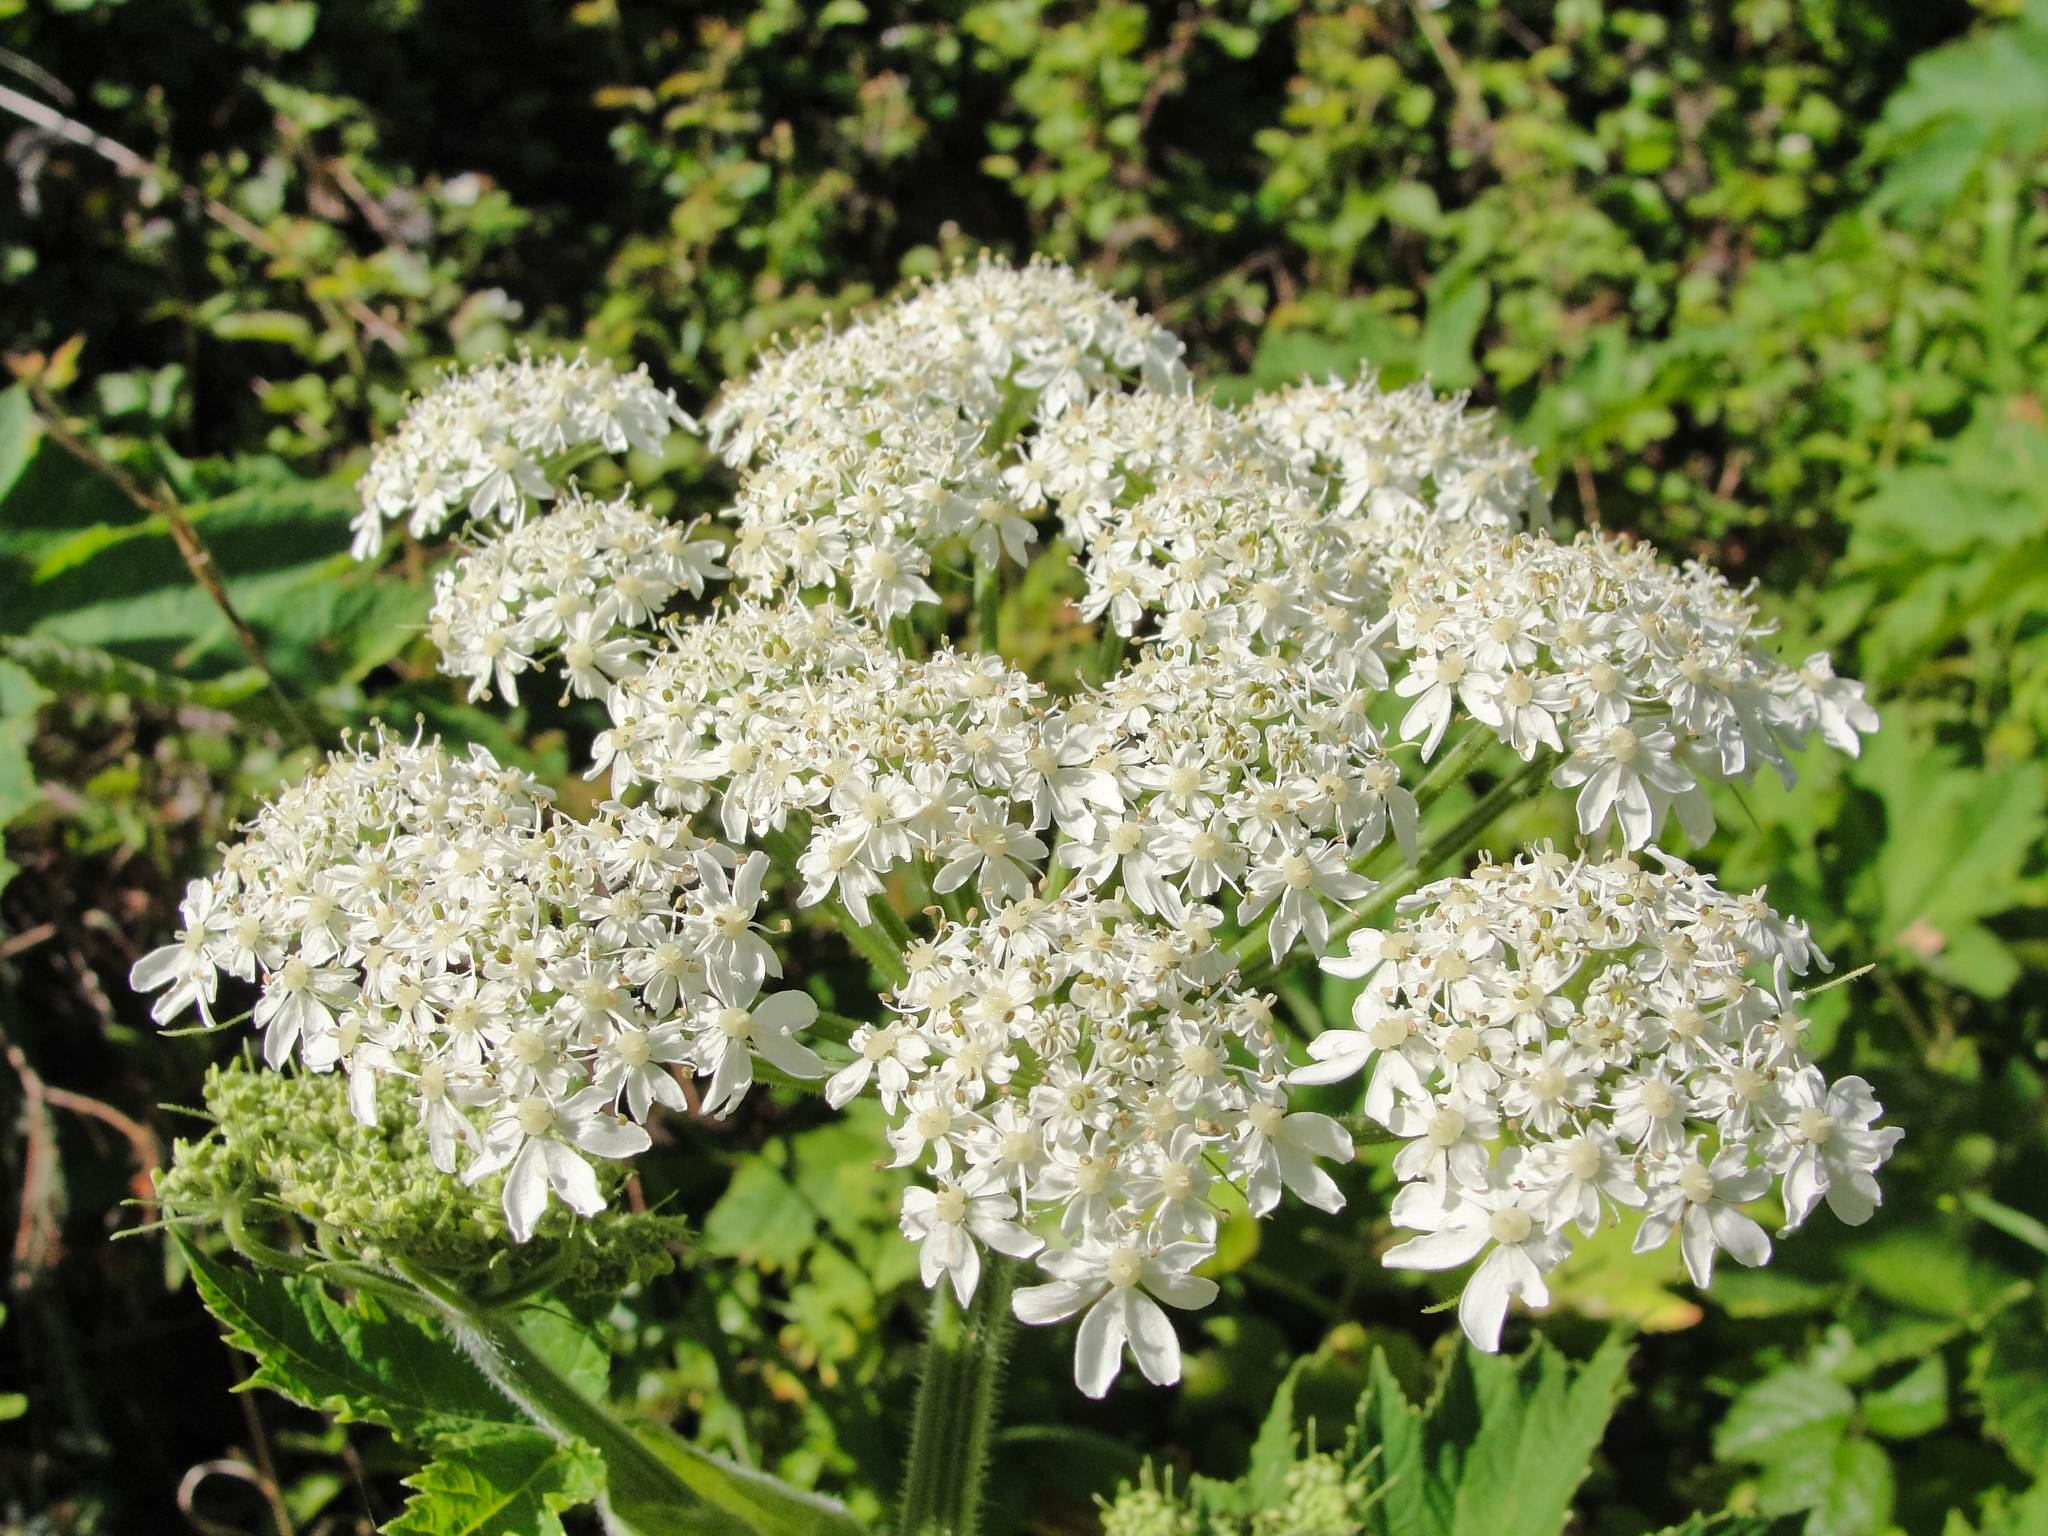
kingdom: Plantae
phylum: Tracheophyta
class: Magnoliopsida
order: Apiales
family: Apiaceae
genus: Heracleum
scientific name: Heracleum maximum
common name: American cow parsnip
